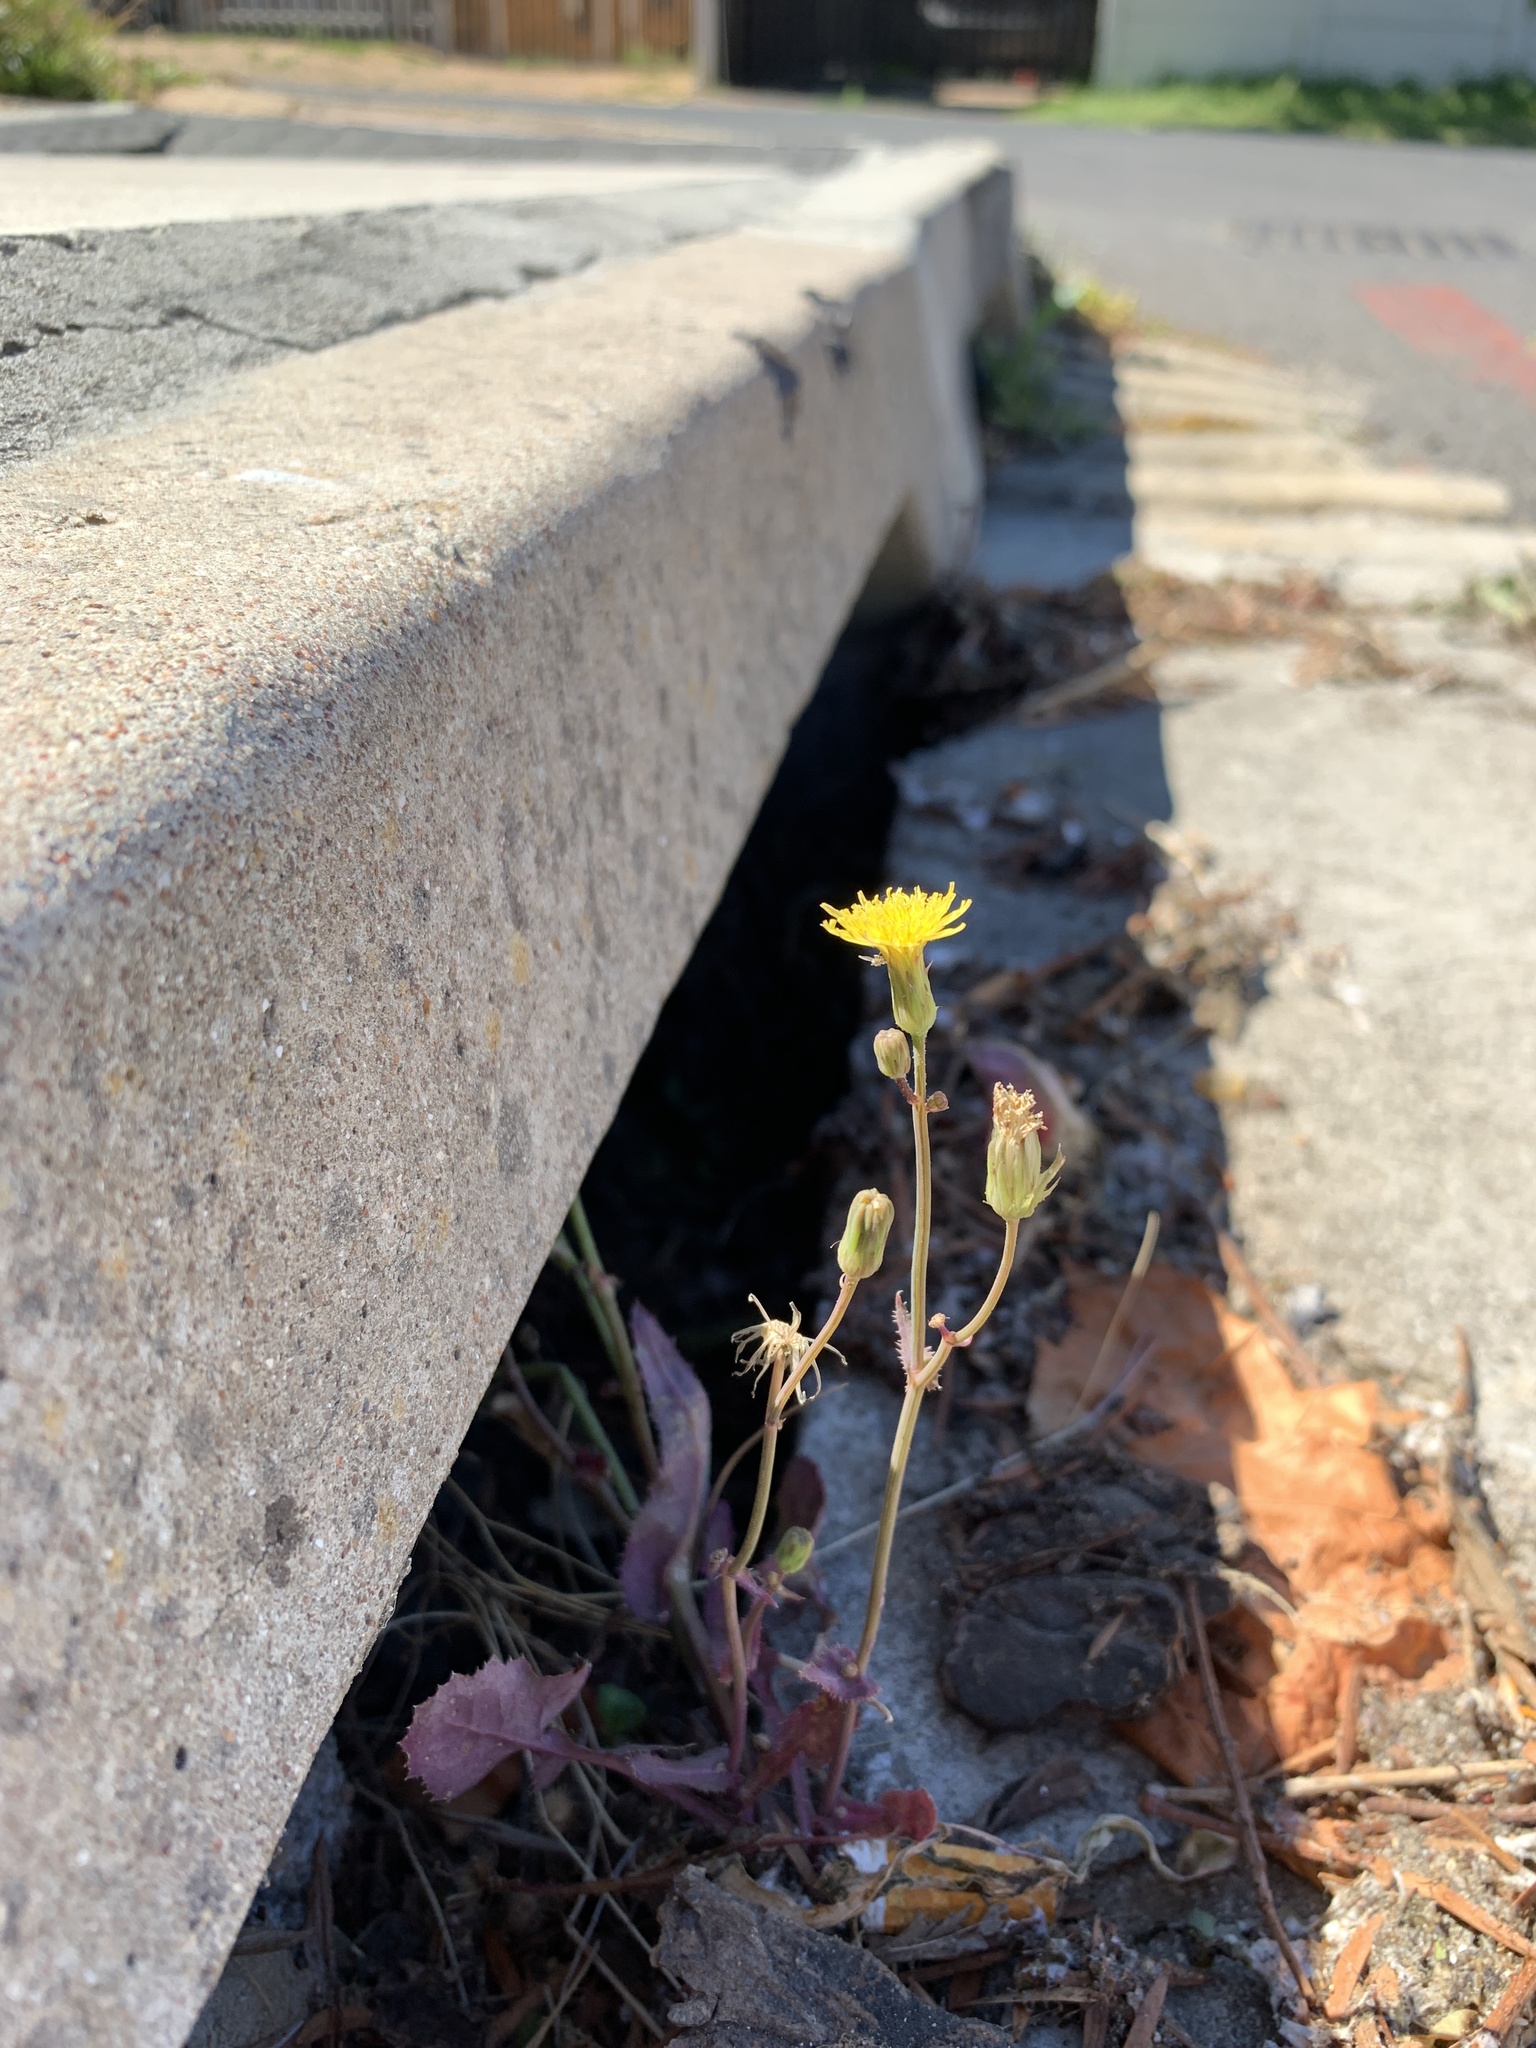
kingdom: Plantae
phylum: Tracheophyta
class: Magnoliopsida
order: Asterales
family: Asteraceae
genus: Sonchus
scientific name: Sonchus oleraceus
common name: Common sowthistle
